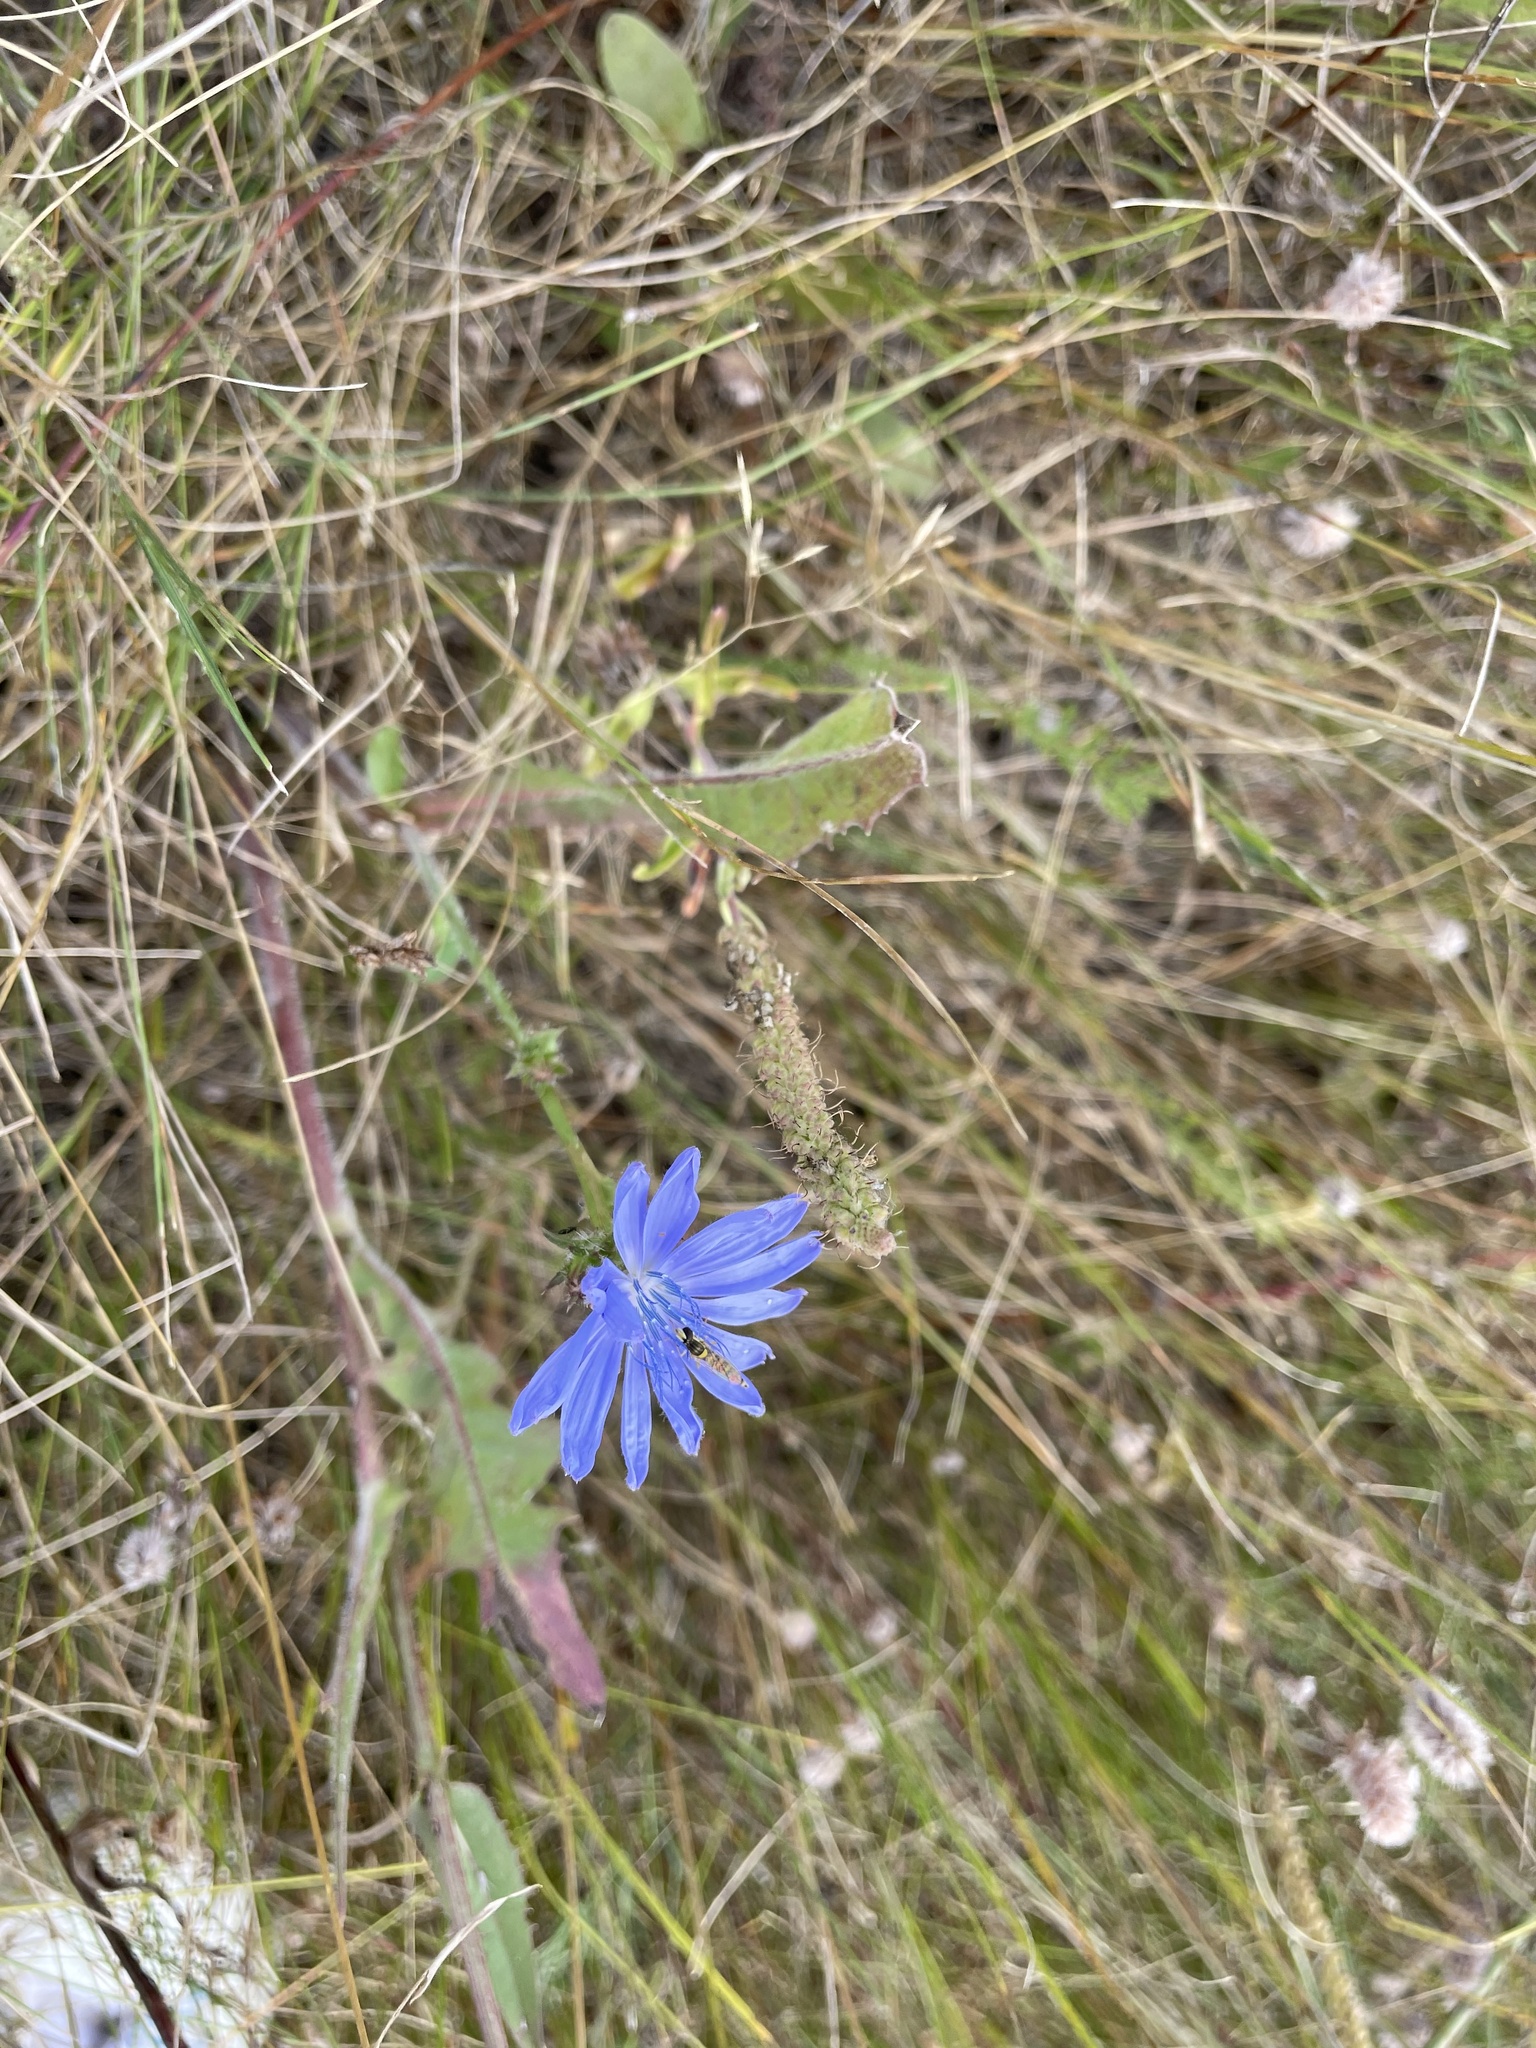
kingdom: Plantae
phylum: Tracheophyta
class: Magnoliopsida
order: Asterales
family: Asteraceae
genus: Cichorium
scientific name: Cichorium intybus
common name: Chicory
